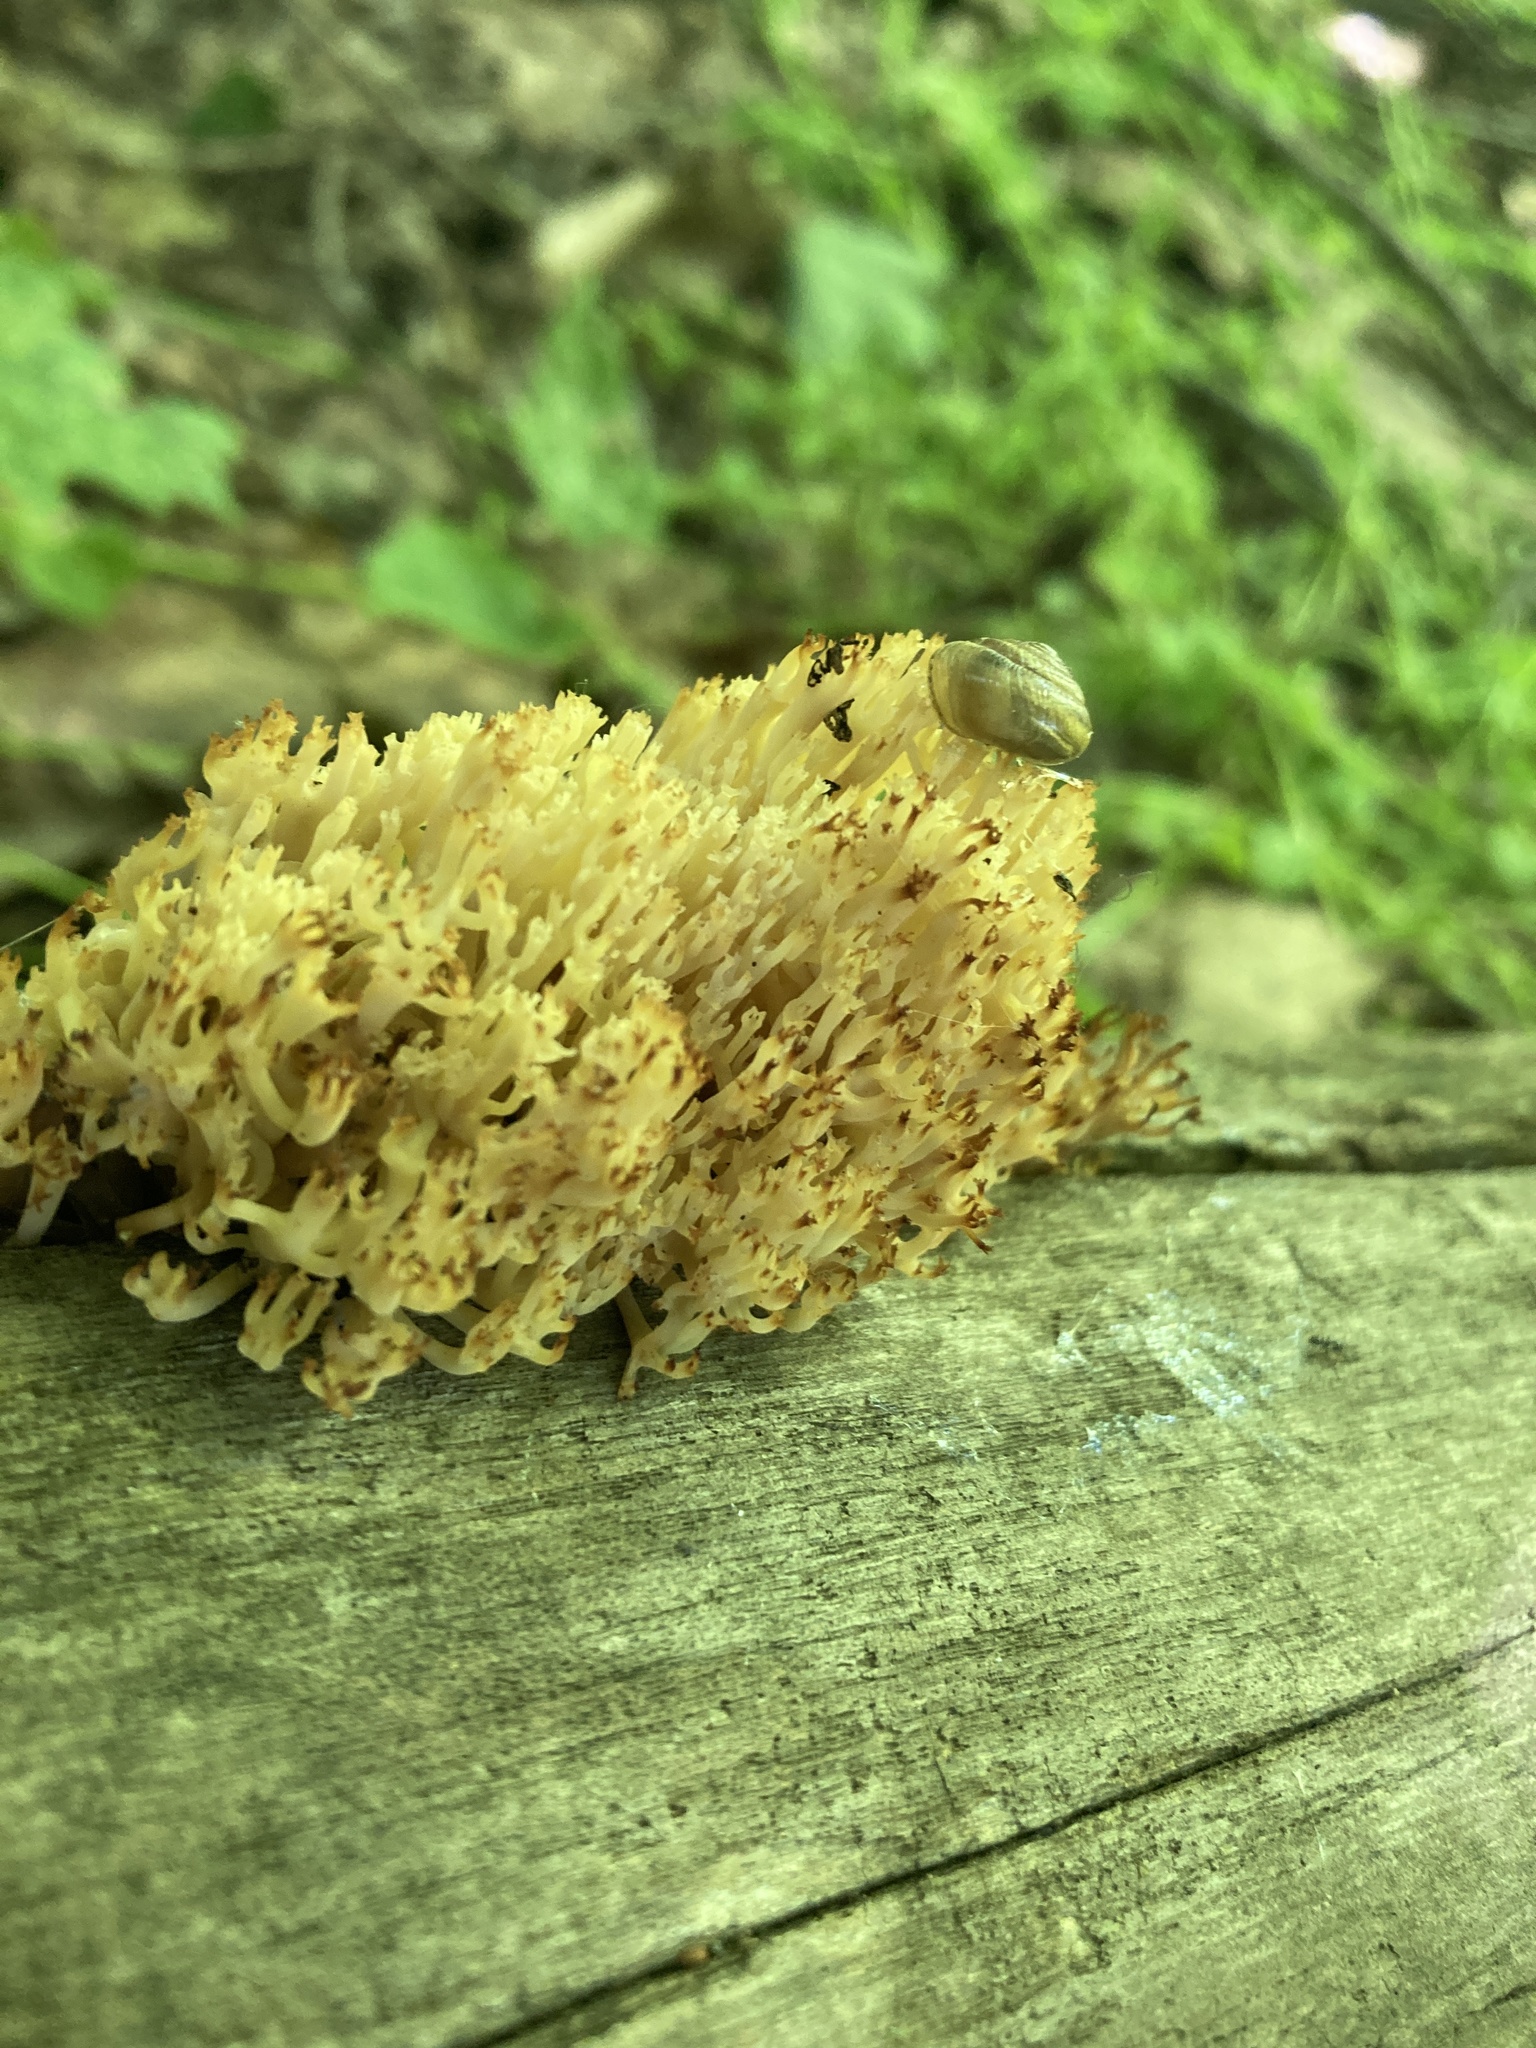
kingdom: Fungi
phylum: Basidiomycota
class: Agaricomycetes
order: Russulales
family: Auriscalpiaceae
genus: Artomyces
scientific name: Artomyces pyxidatus
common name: Crown-tipped coral fungus
